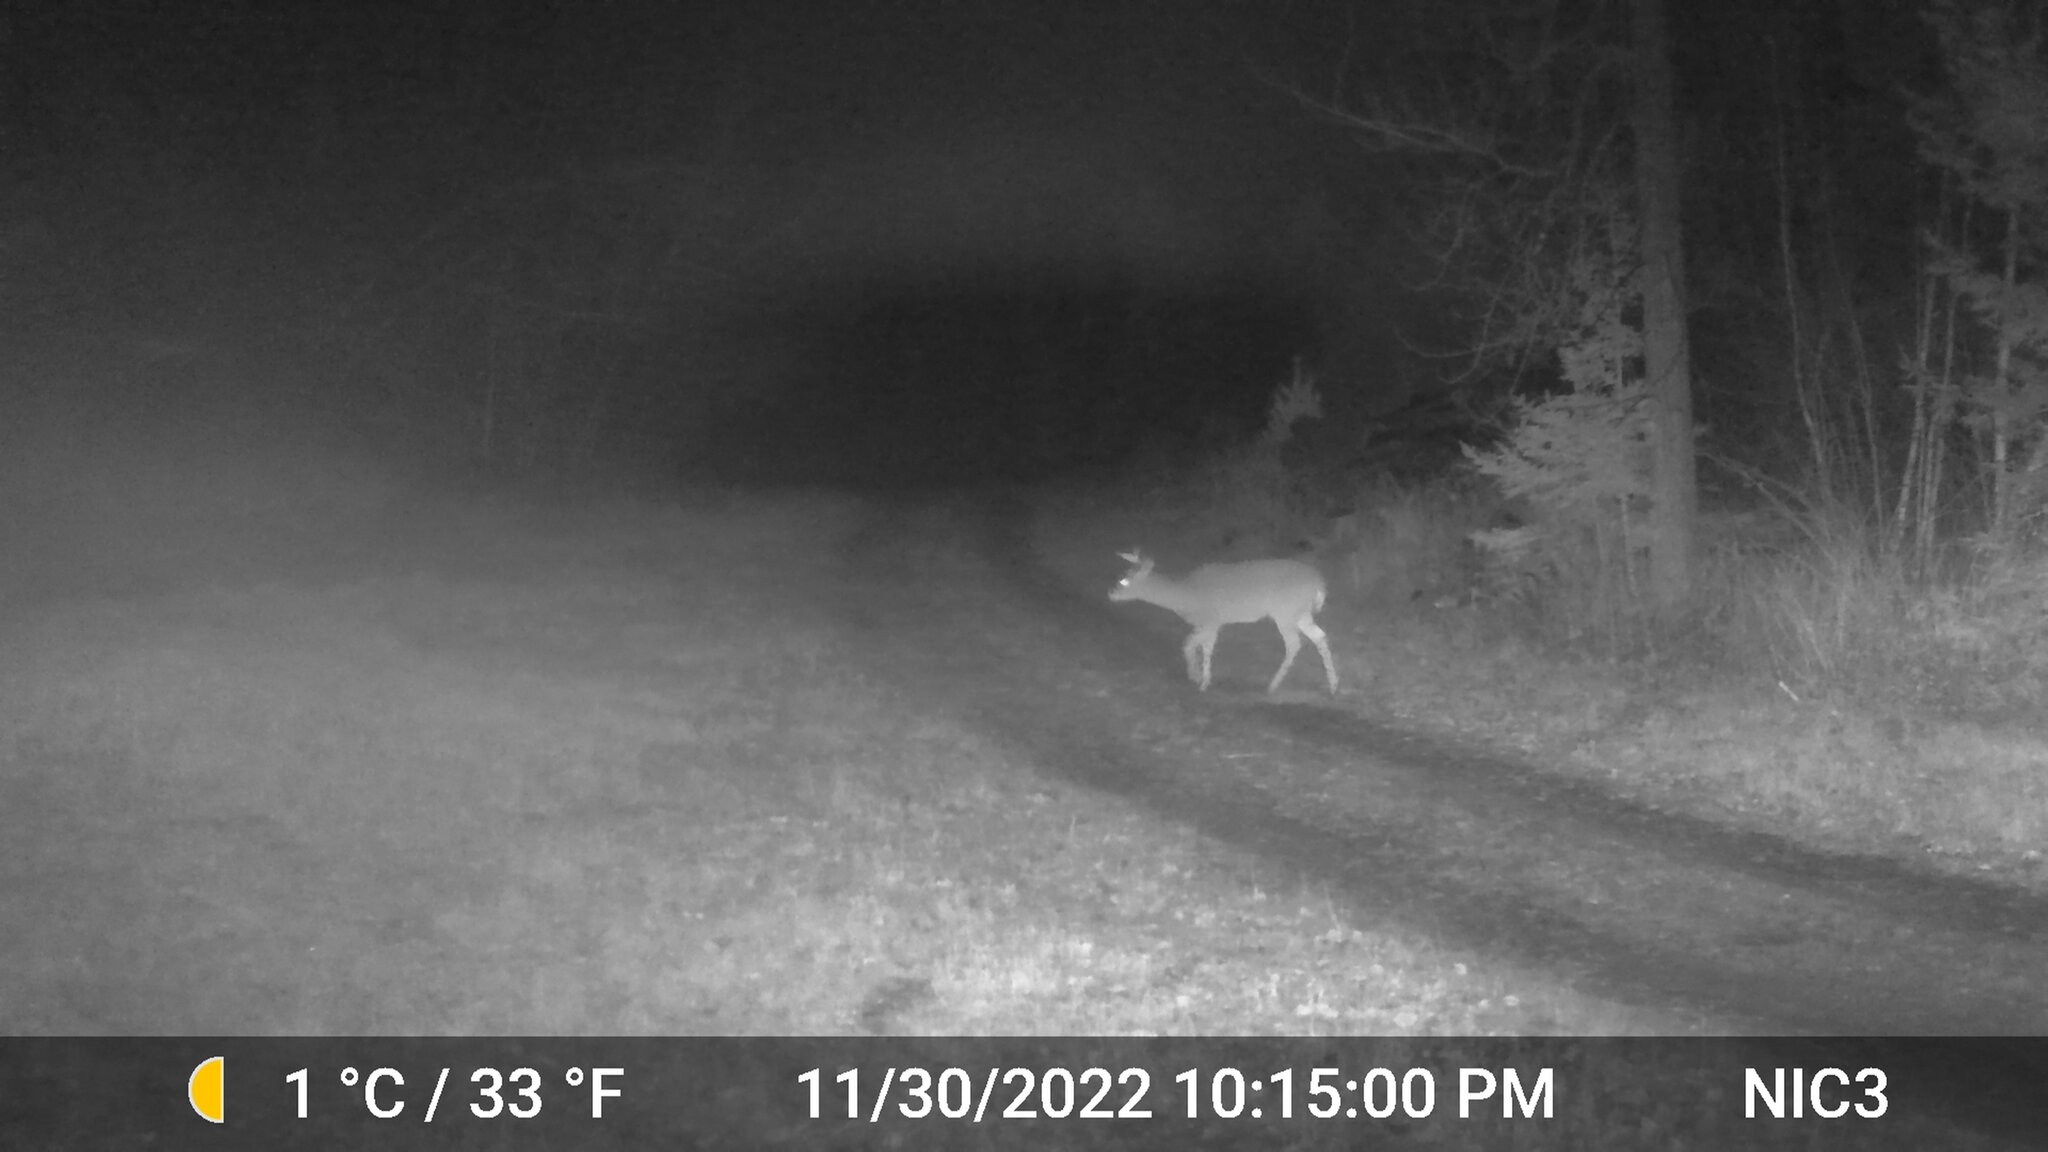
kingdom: Animalia
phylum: Chordata
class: Mammalia
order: Artiodactyla
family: Cervidae
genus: Odocoileus
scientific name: Odocoileus virginianus
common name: White-tailed deer
